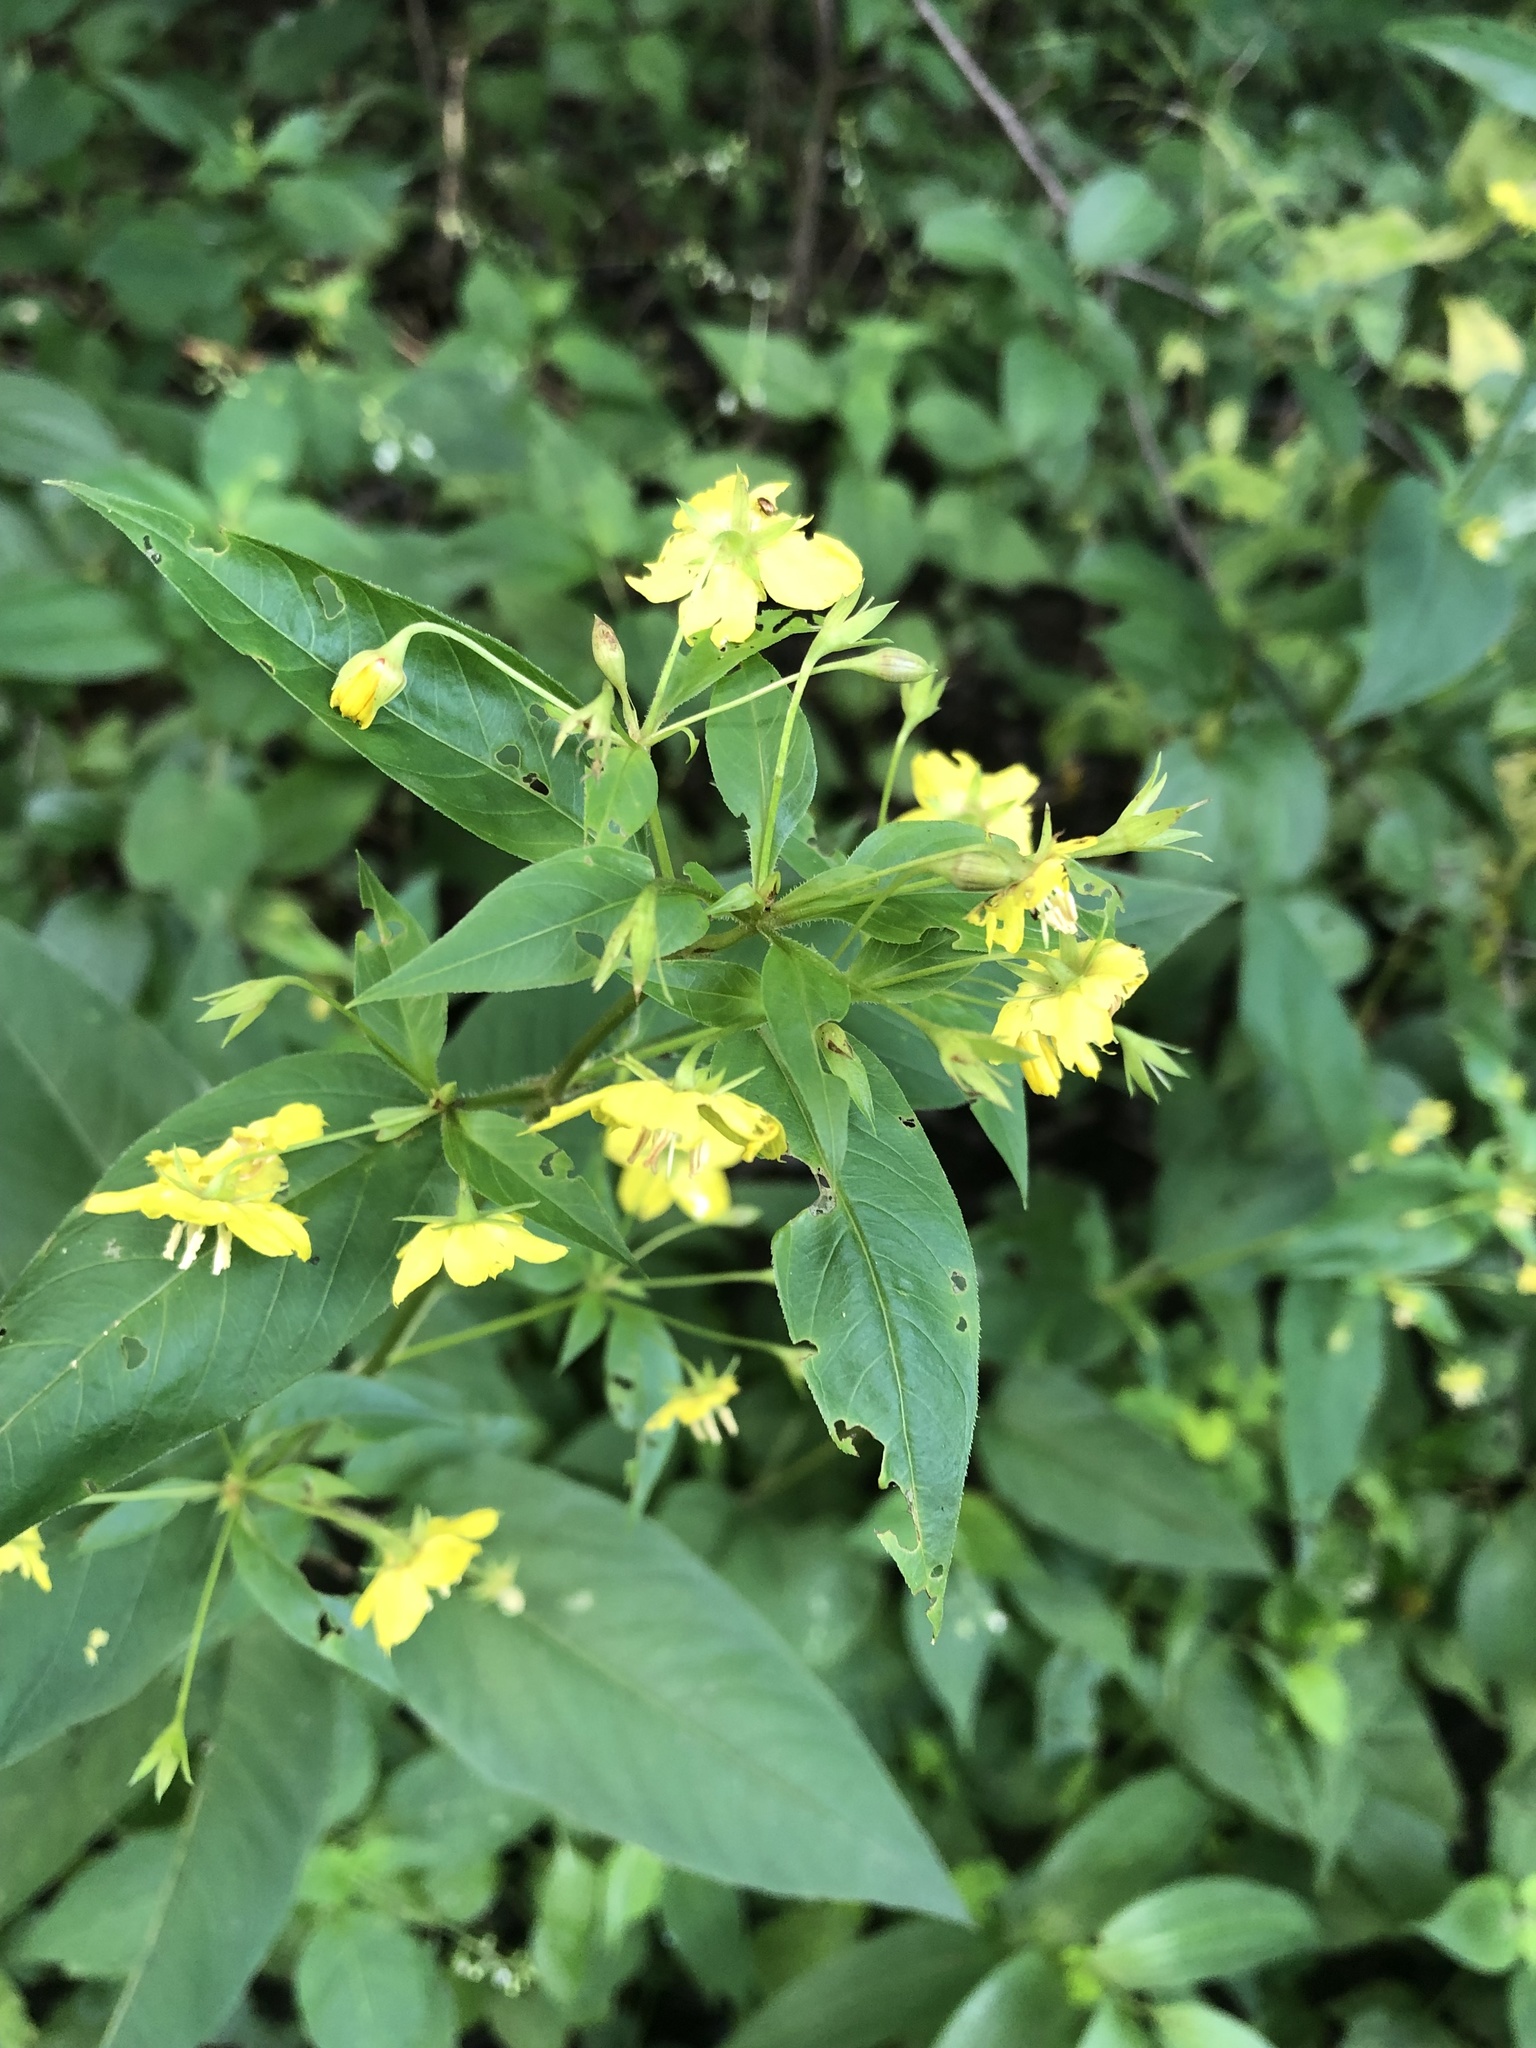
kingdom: Plantae
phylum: Tracheophyta
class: Magnoliopsida
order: Ericales
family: Primulaceae
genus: Lysimachia
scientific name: Lysimachia ciliata
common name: Fringed loosestrife
